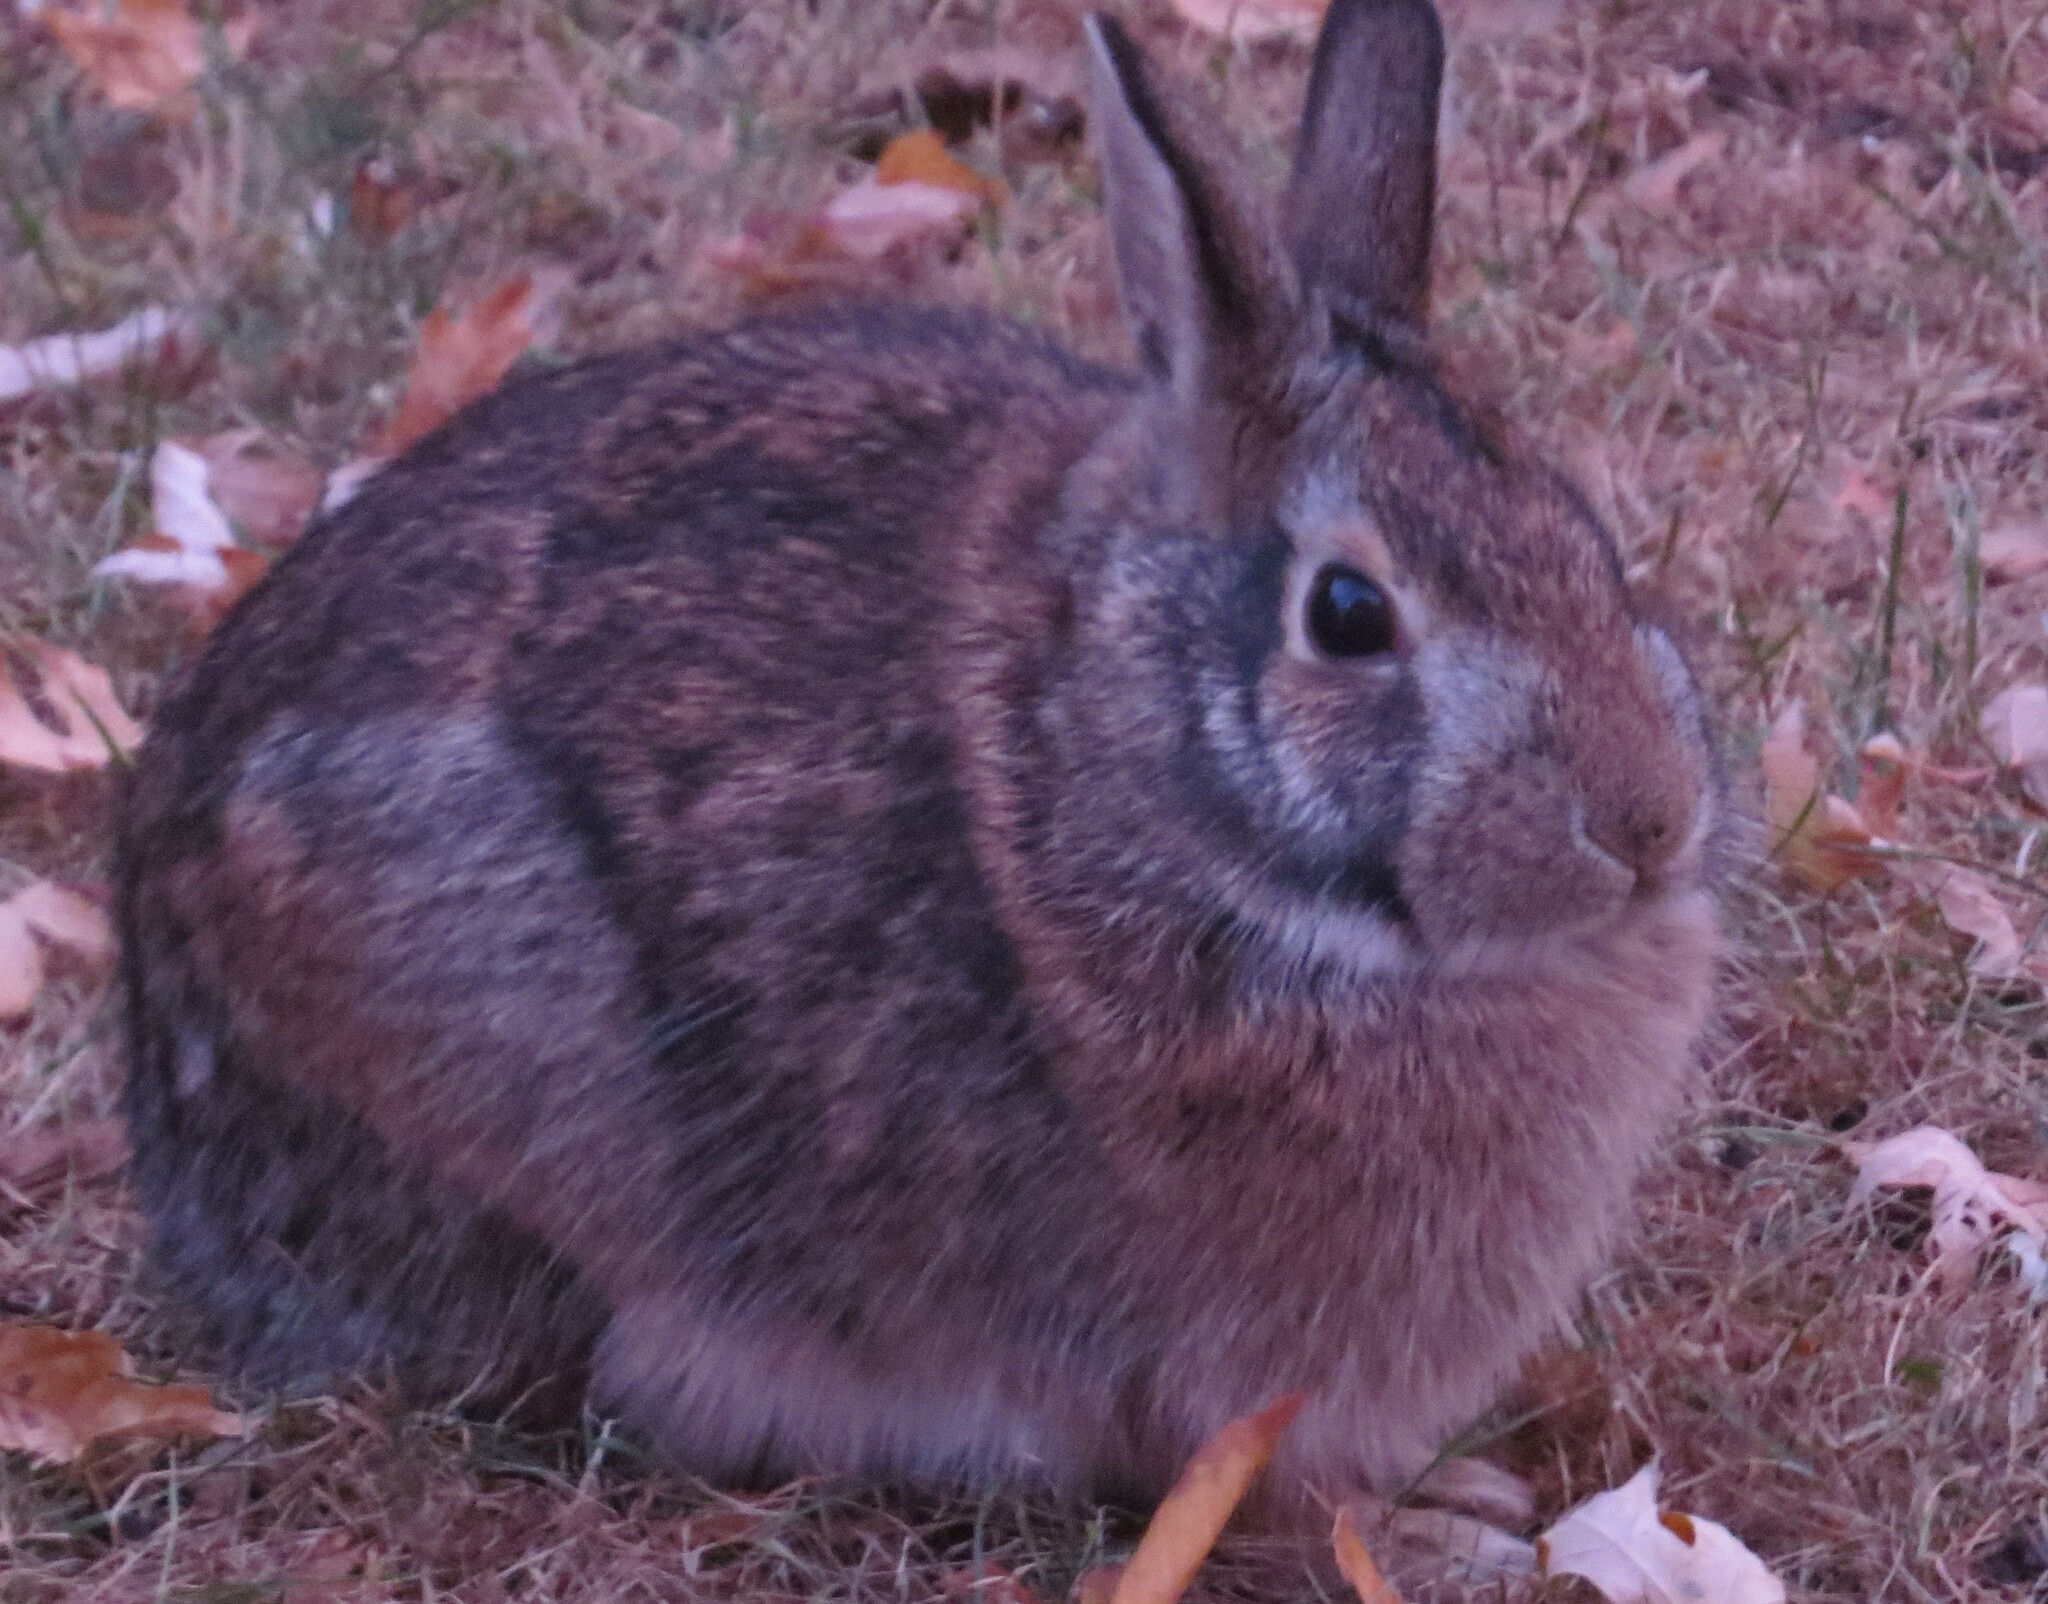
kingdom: Animalia
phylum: Chordata
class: Mammalia
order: Lagomorpha
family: Leporidae
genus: Sylvilagus
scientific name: Sylvilagus floridanus
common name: Eastern cottontail
